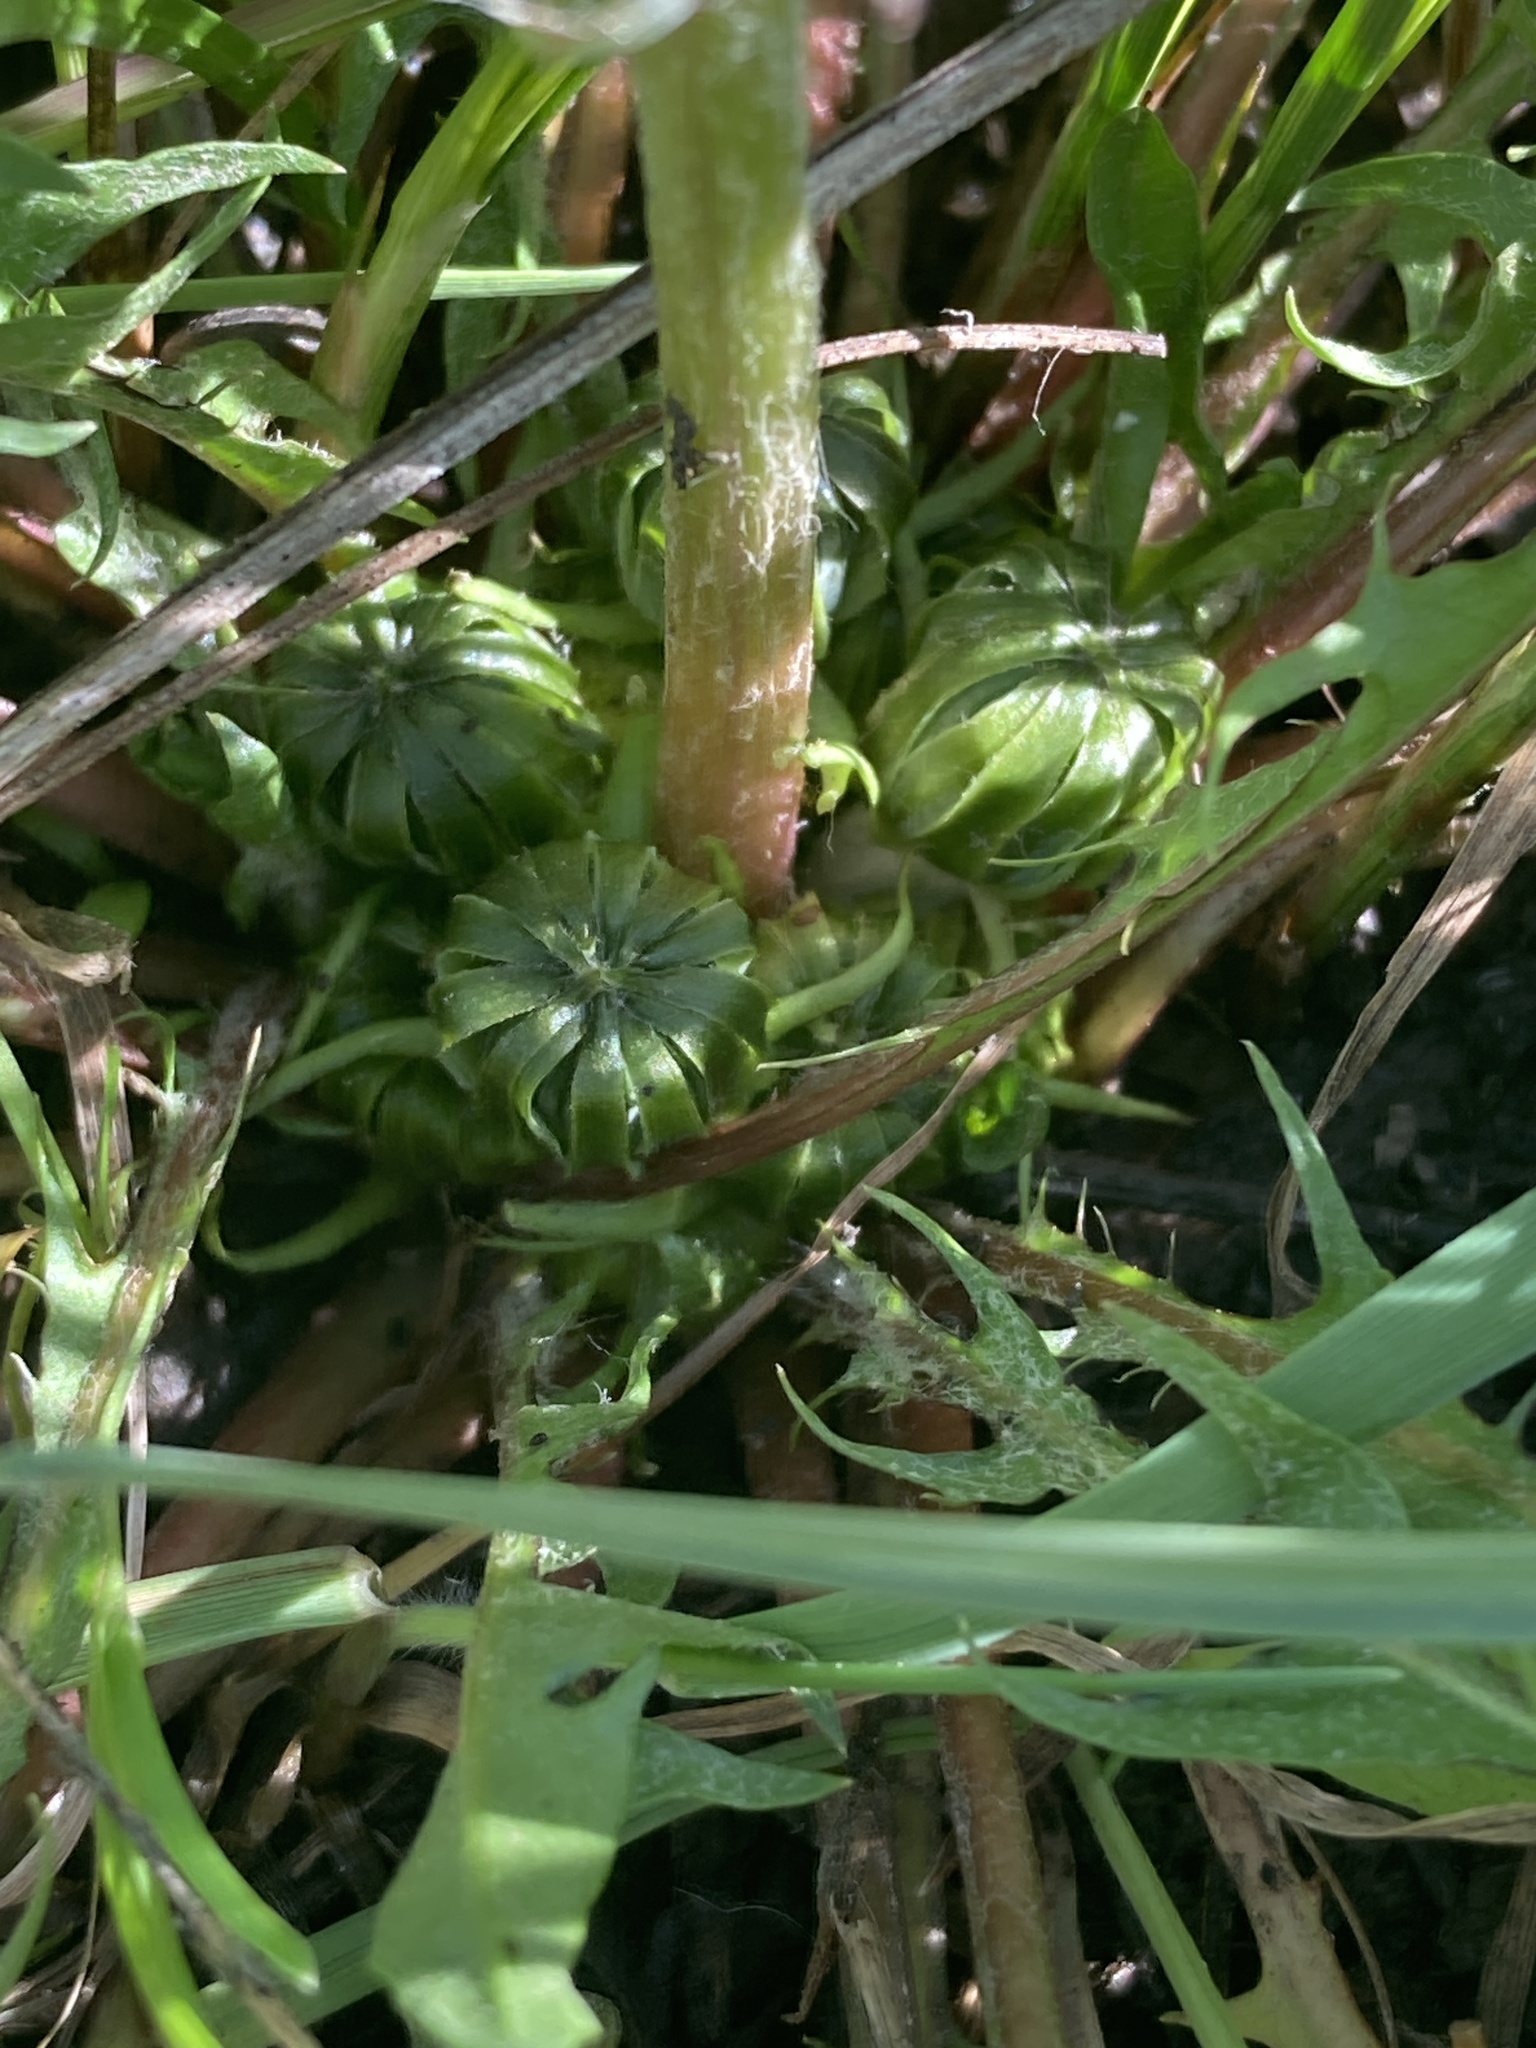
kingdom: Plantae
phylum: Tracheophyta
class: Magnoliopsida
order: Asterales
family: Asteraceae
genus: Taraxacum
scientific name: Taraxacum officinale
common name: Common dandelion
